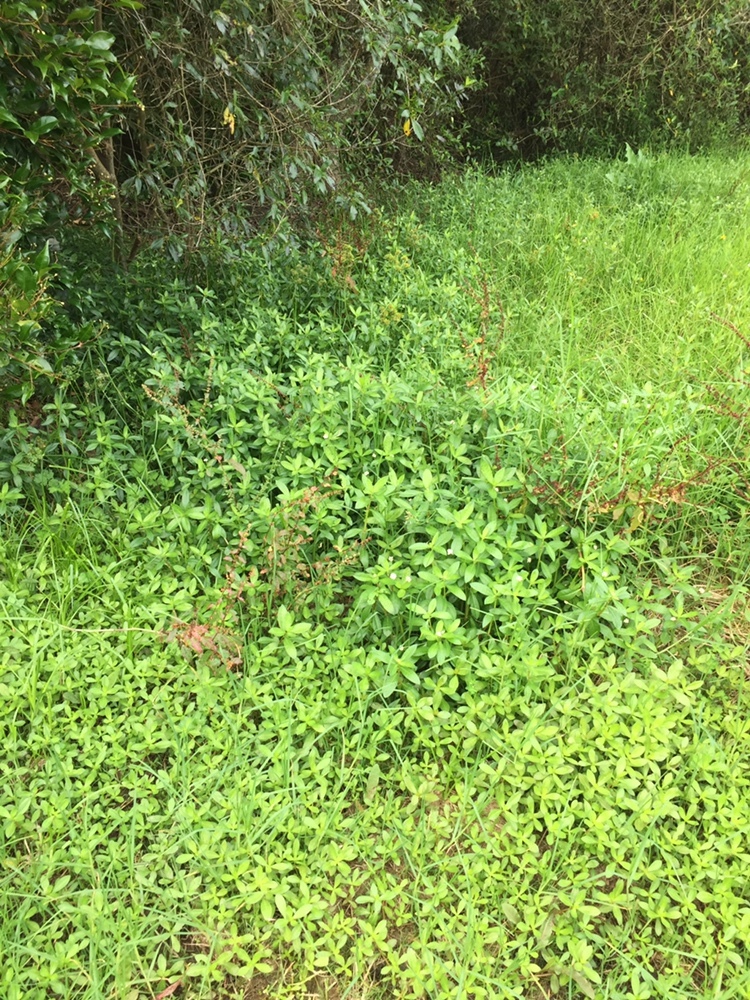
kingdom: Plantae
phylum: Tracheophyta
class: Magnoliopsida
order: Caryophyllales
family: Amaranthaceae
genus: Alternanthera
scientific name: Alternanthera philoxeroides
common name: Alligatorweed
